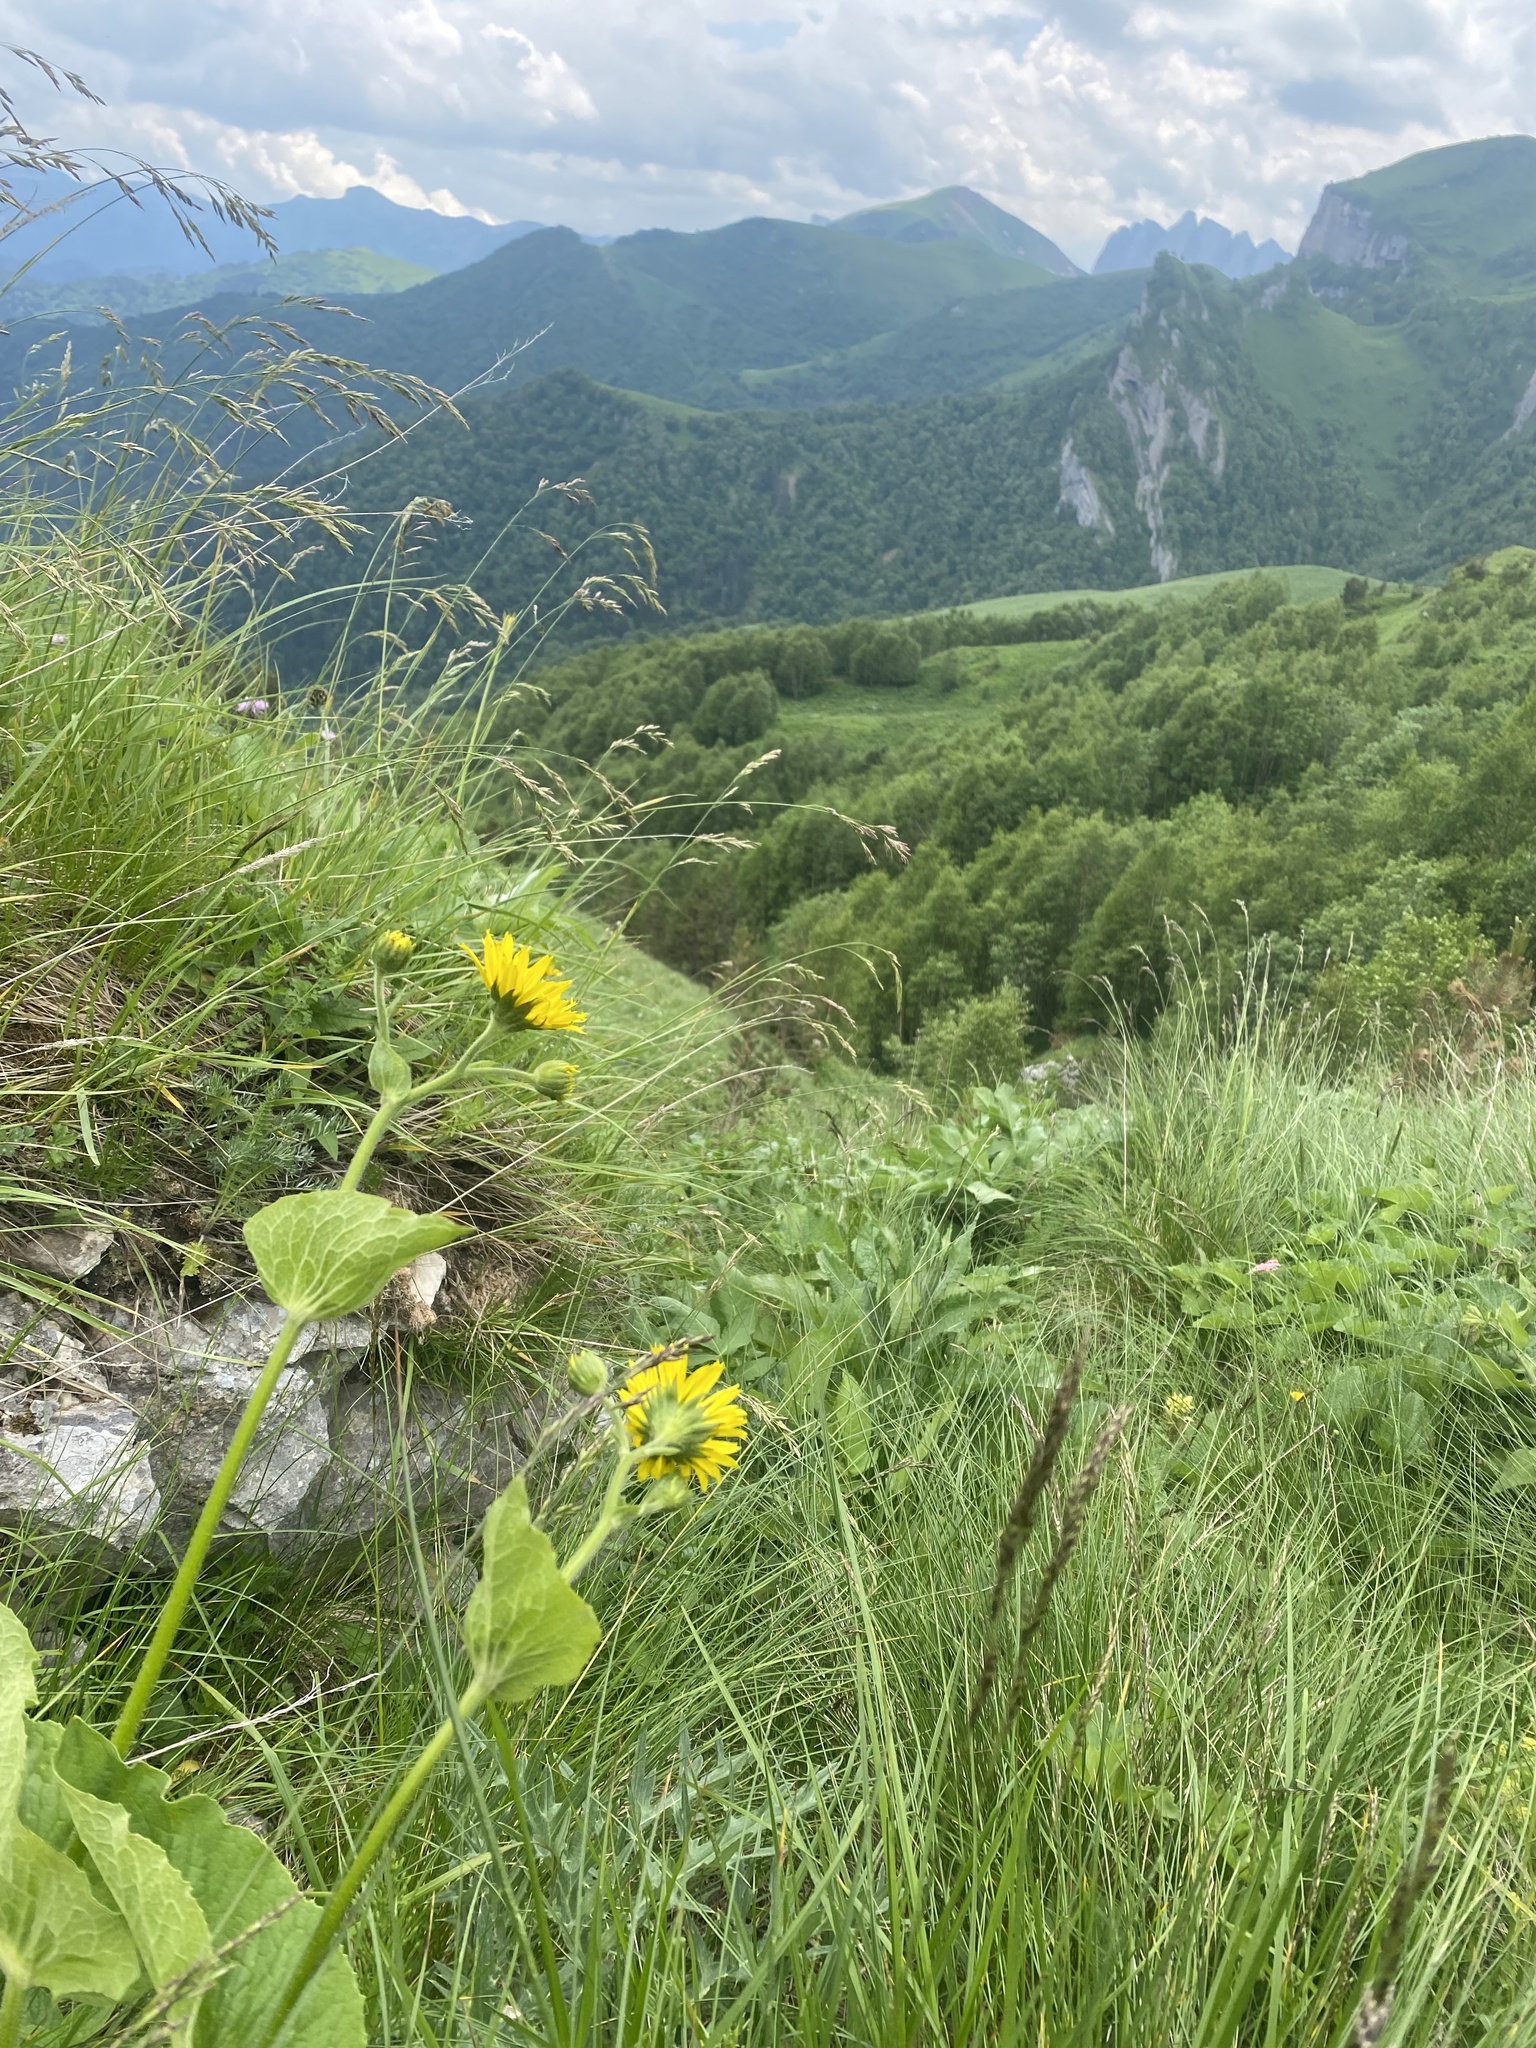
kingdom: Plantae
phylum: Tracheophyta
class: Magnoliopsida
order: Asterales
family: Asteraceae
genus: Doronicum
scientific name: Doronicum macrophyllum
